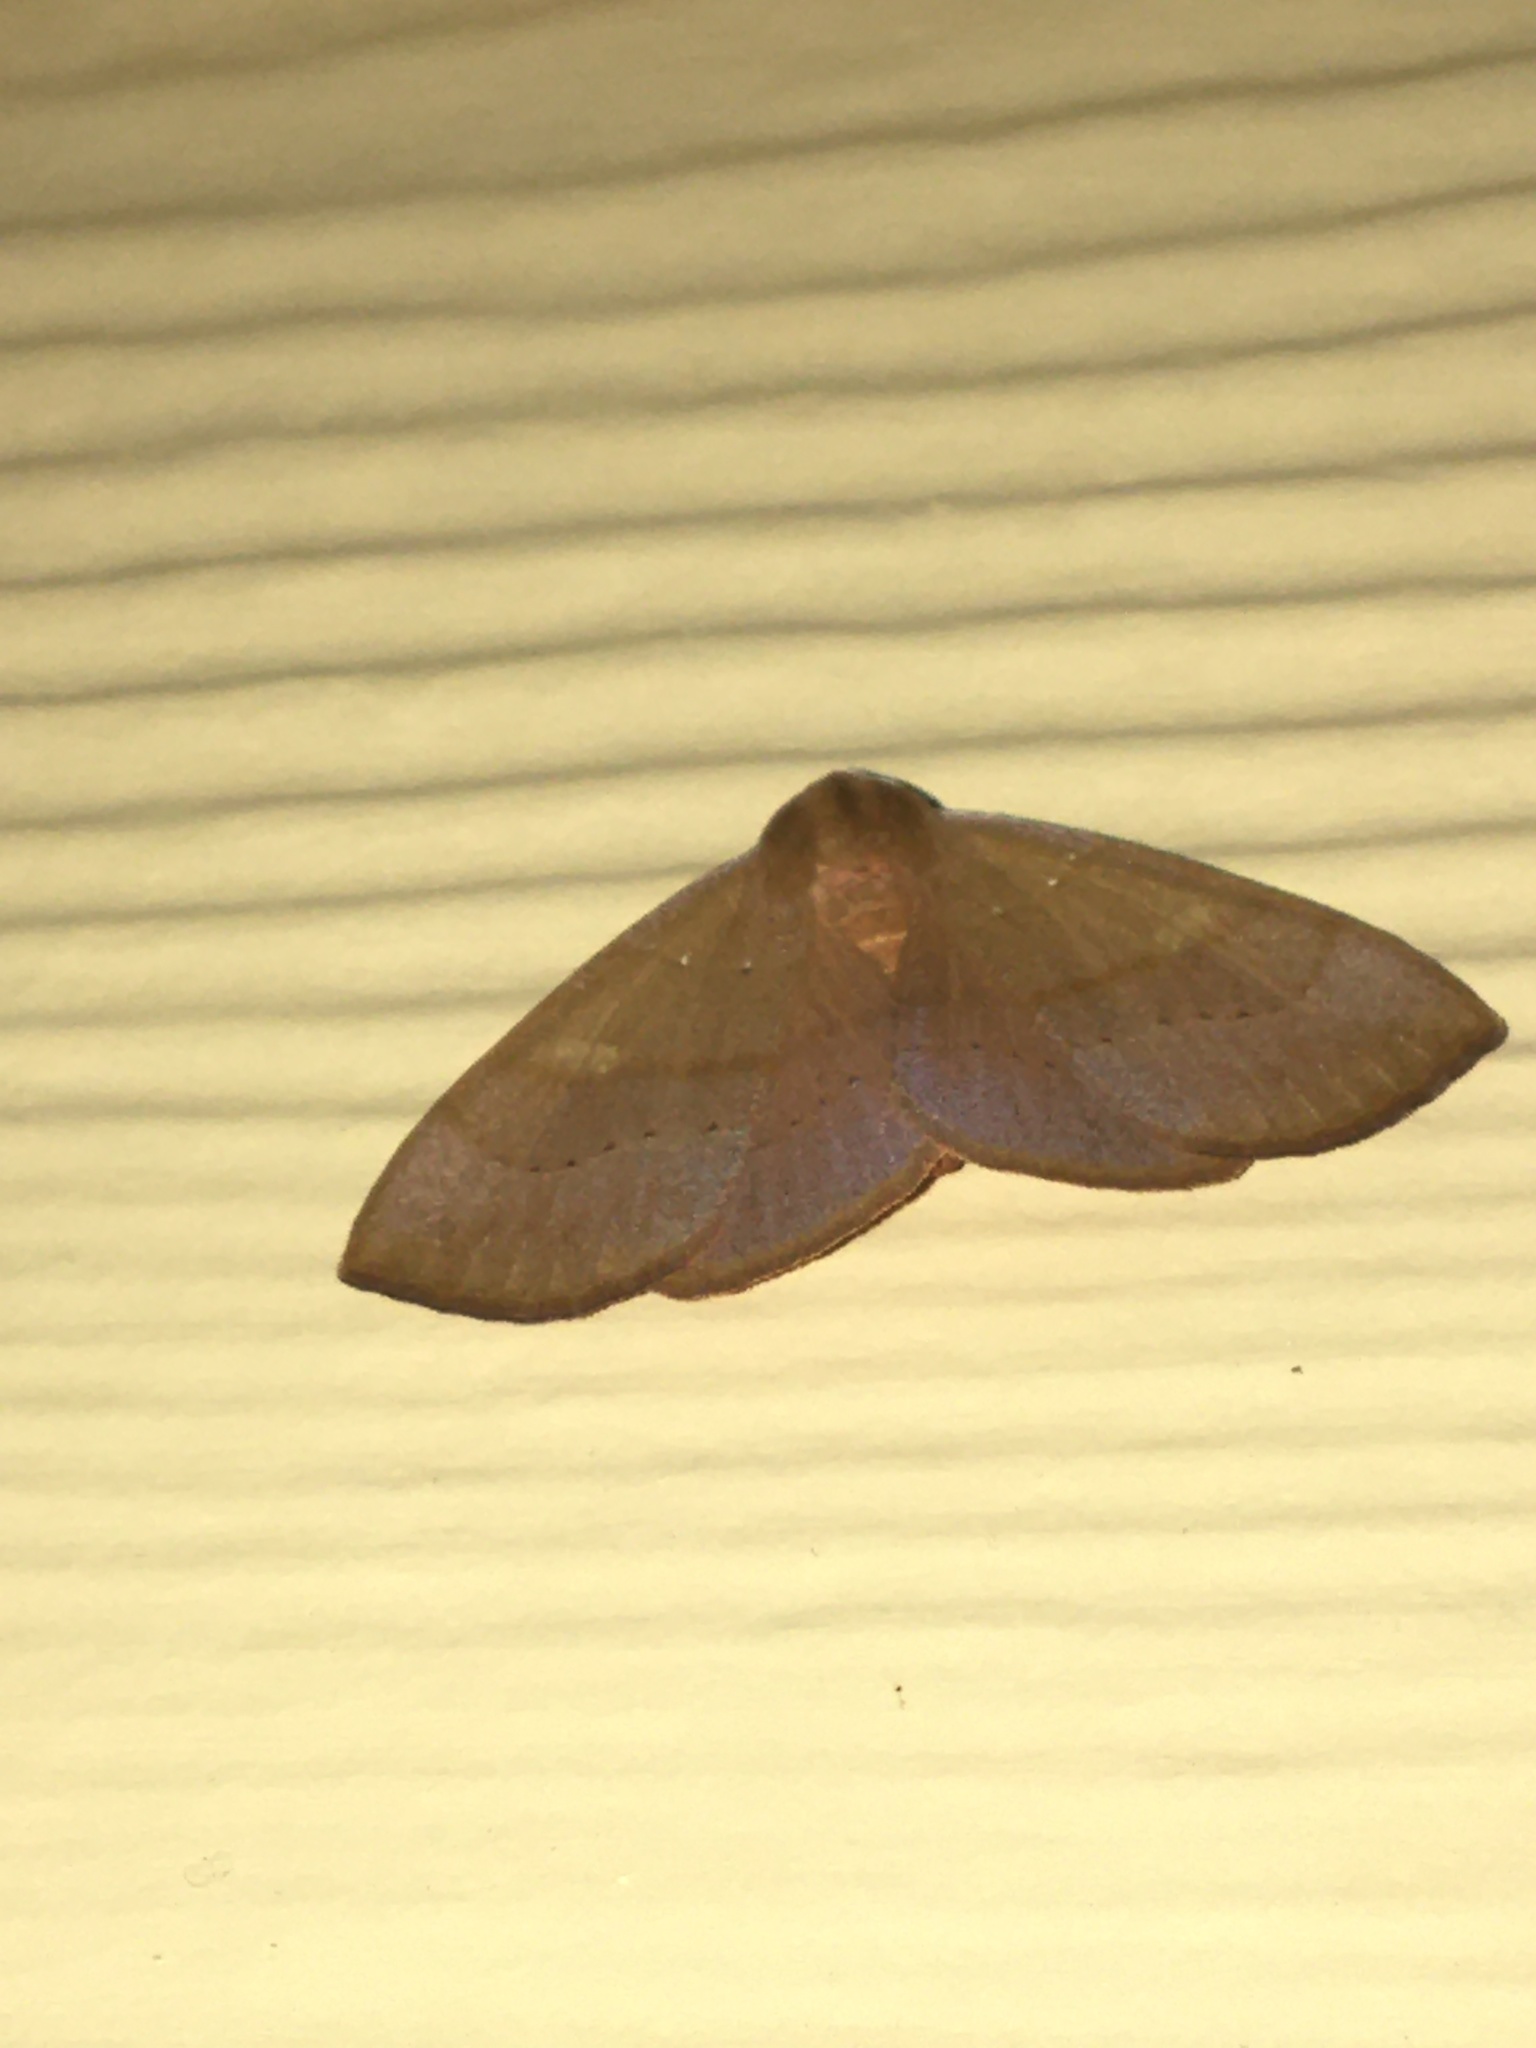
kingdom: Animalia
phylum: Arthropoda
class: Insecta
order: Lepidoptera
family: Erebidae
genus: Panopoda
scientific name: Panopoda repanda
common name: Orange panopoda
